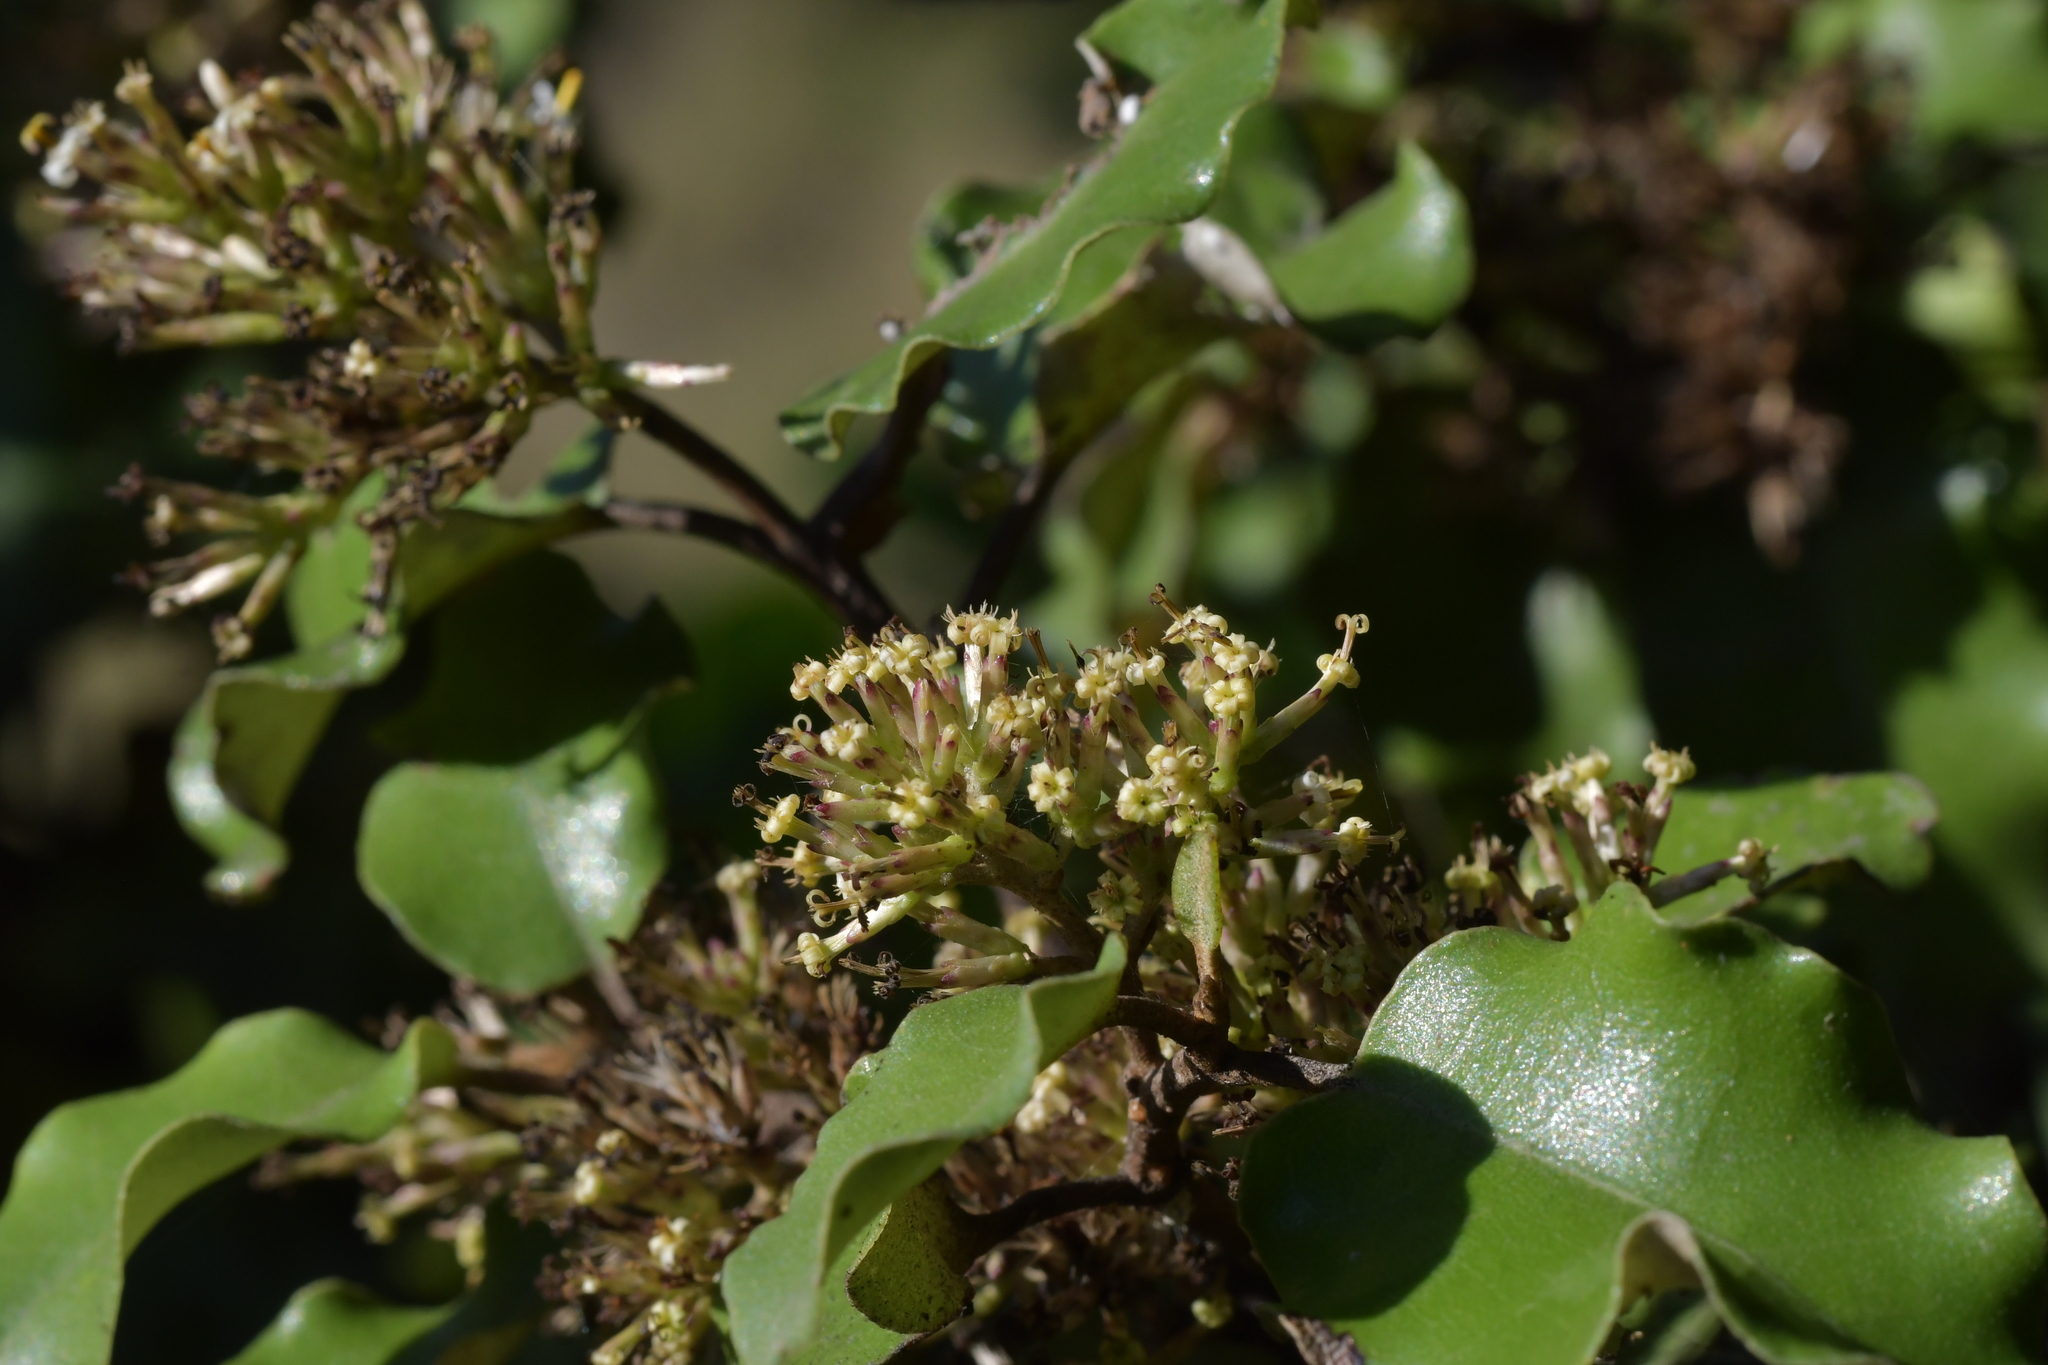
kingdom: Plantae
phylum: Tracheophyta
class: Magnoliopsida
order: Asterales
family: Asteraceae
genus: Olearia
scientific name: Olearia paniculata
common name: Akiraho
